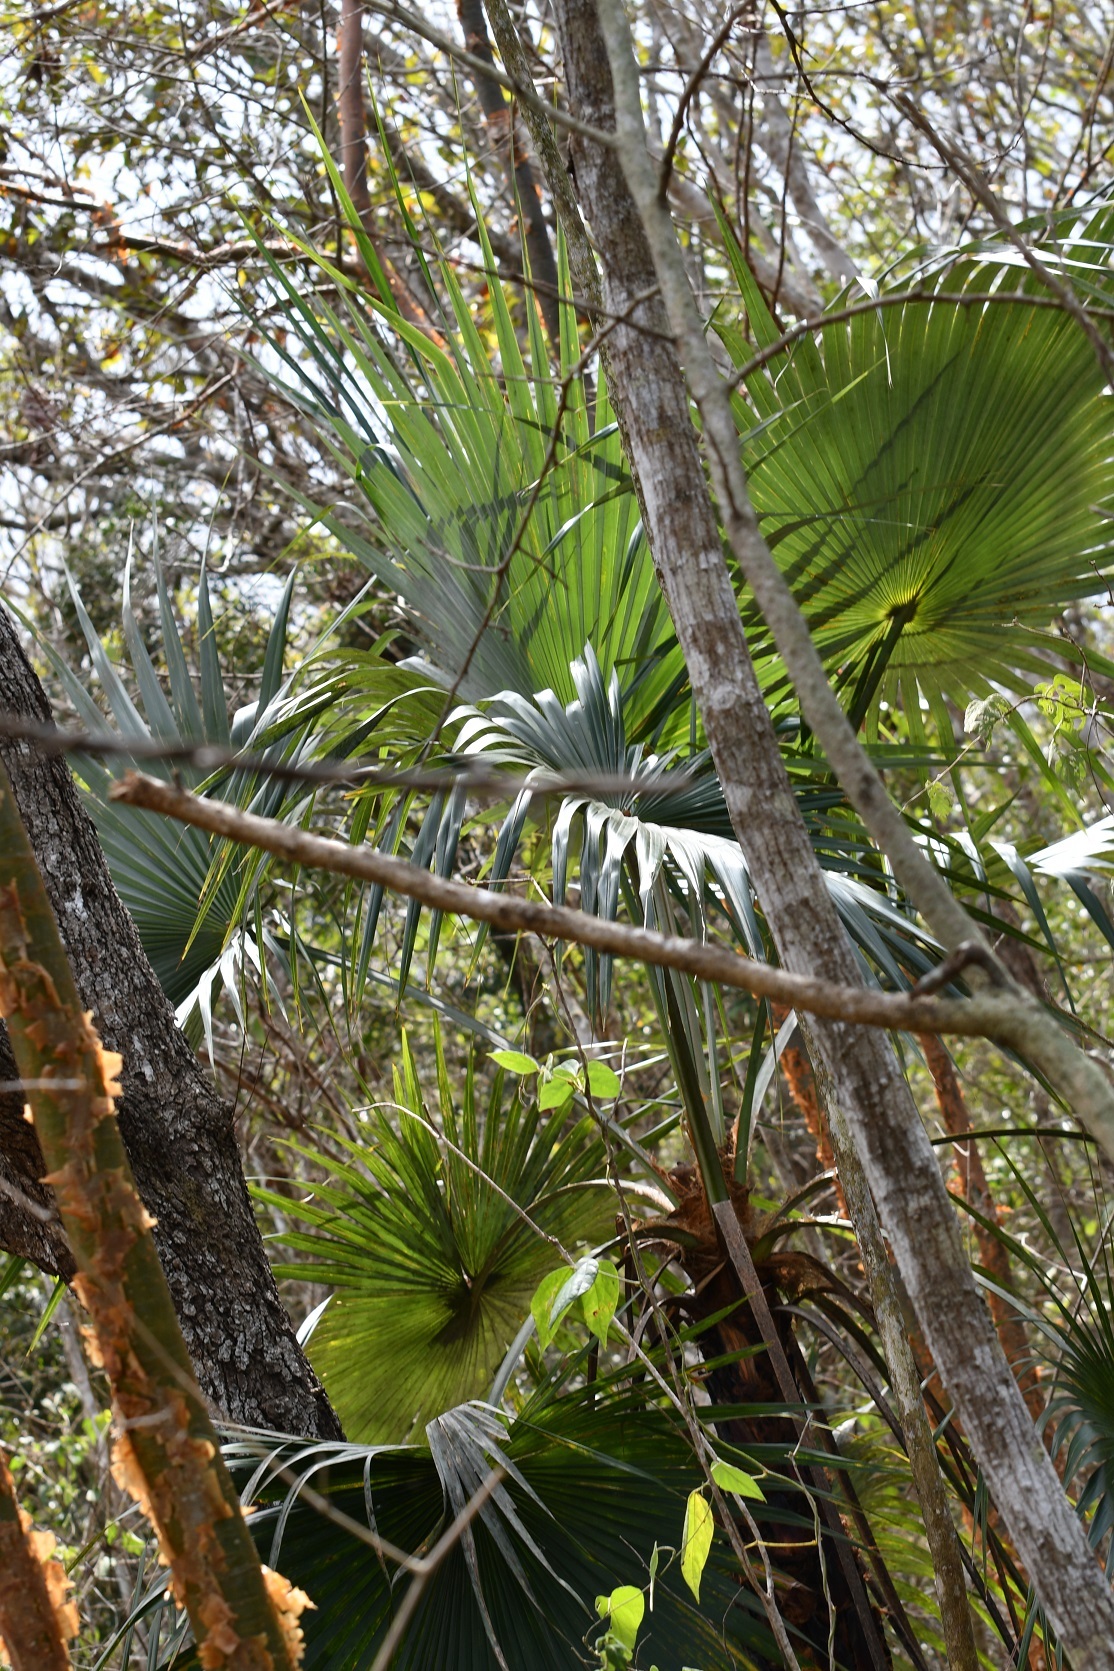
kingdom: Plantae
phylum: Tracheophyta
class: Liliopsida
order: Arecales
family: Arecaceae
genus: Brahea
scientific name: Brahea nitida
